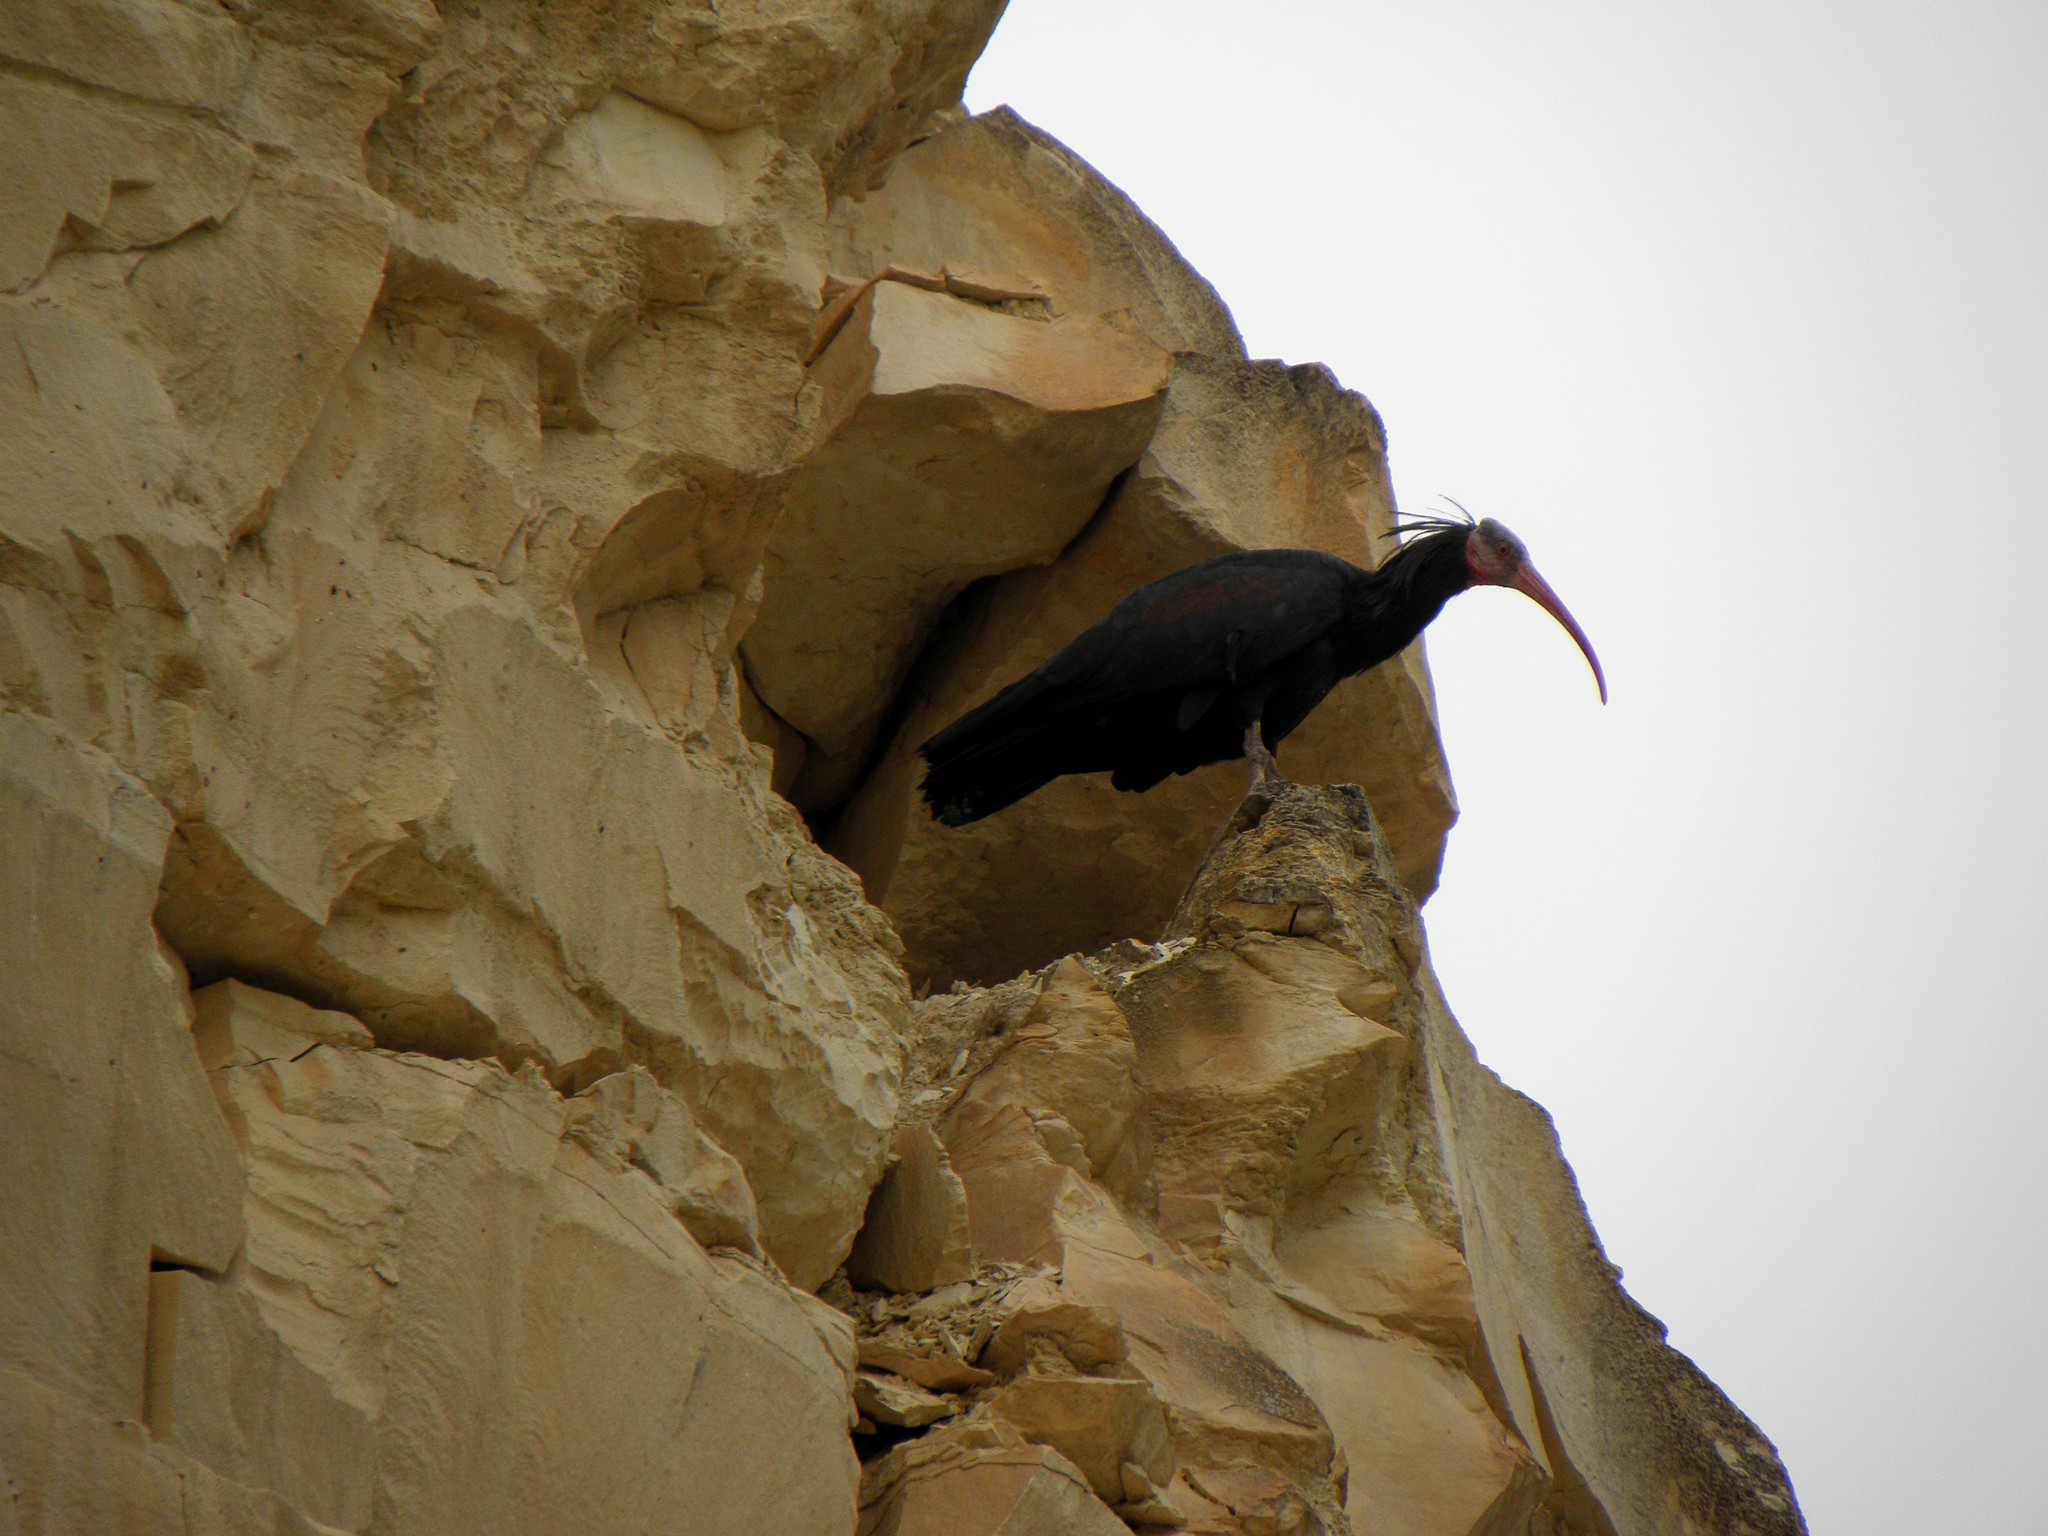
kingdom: Animalia
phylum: Chordata
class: Aves
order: Pelecaniformes
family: Threskiornithidae
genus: Geronticus
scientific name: Geronticus eremita
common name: Northern bald ibis
